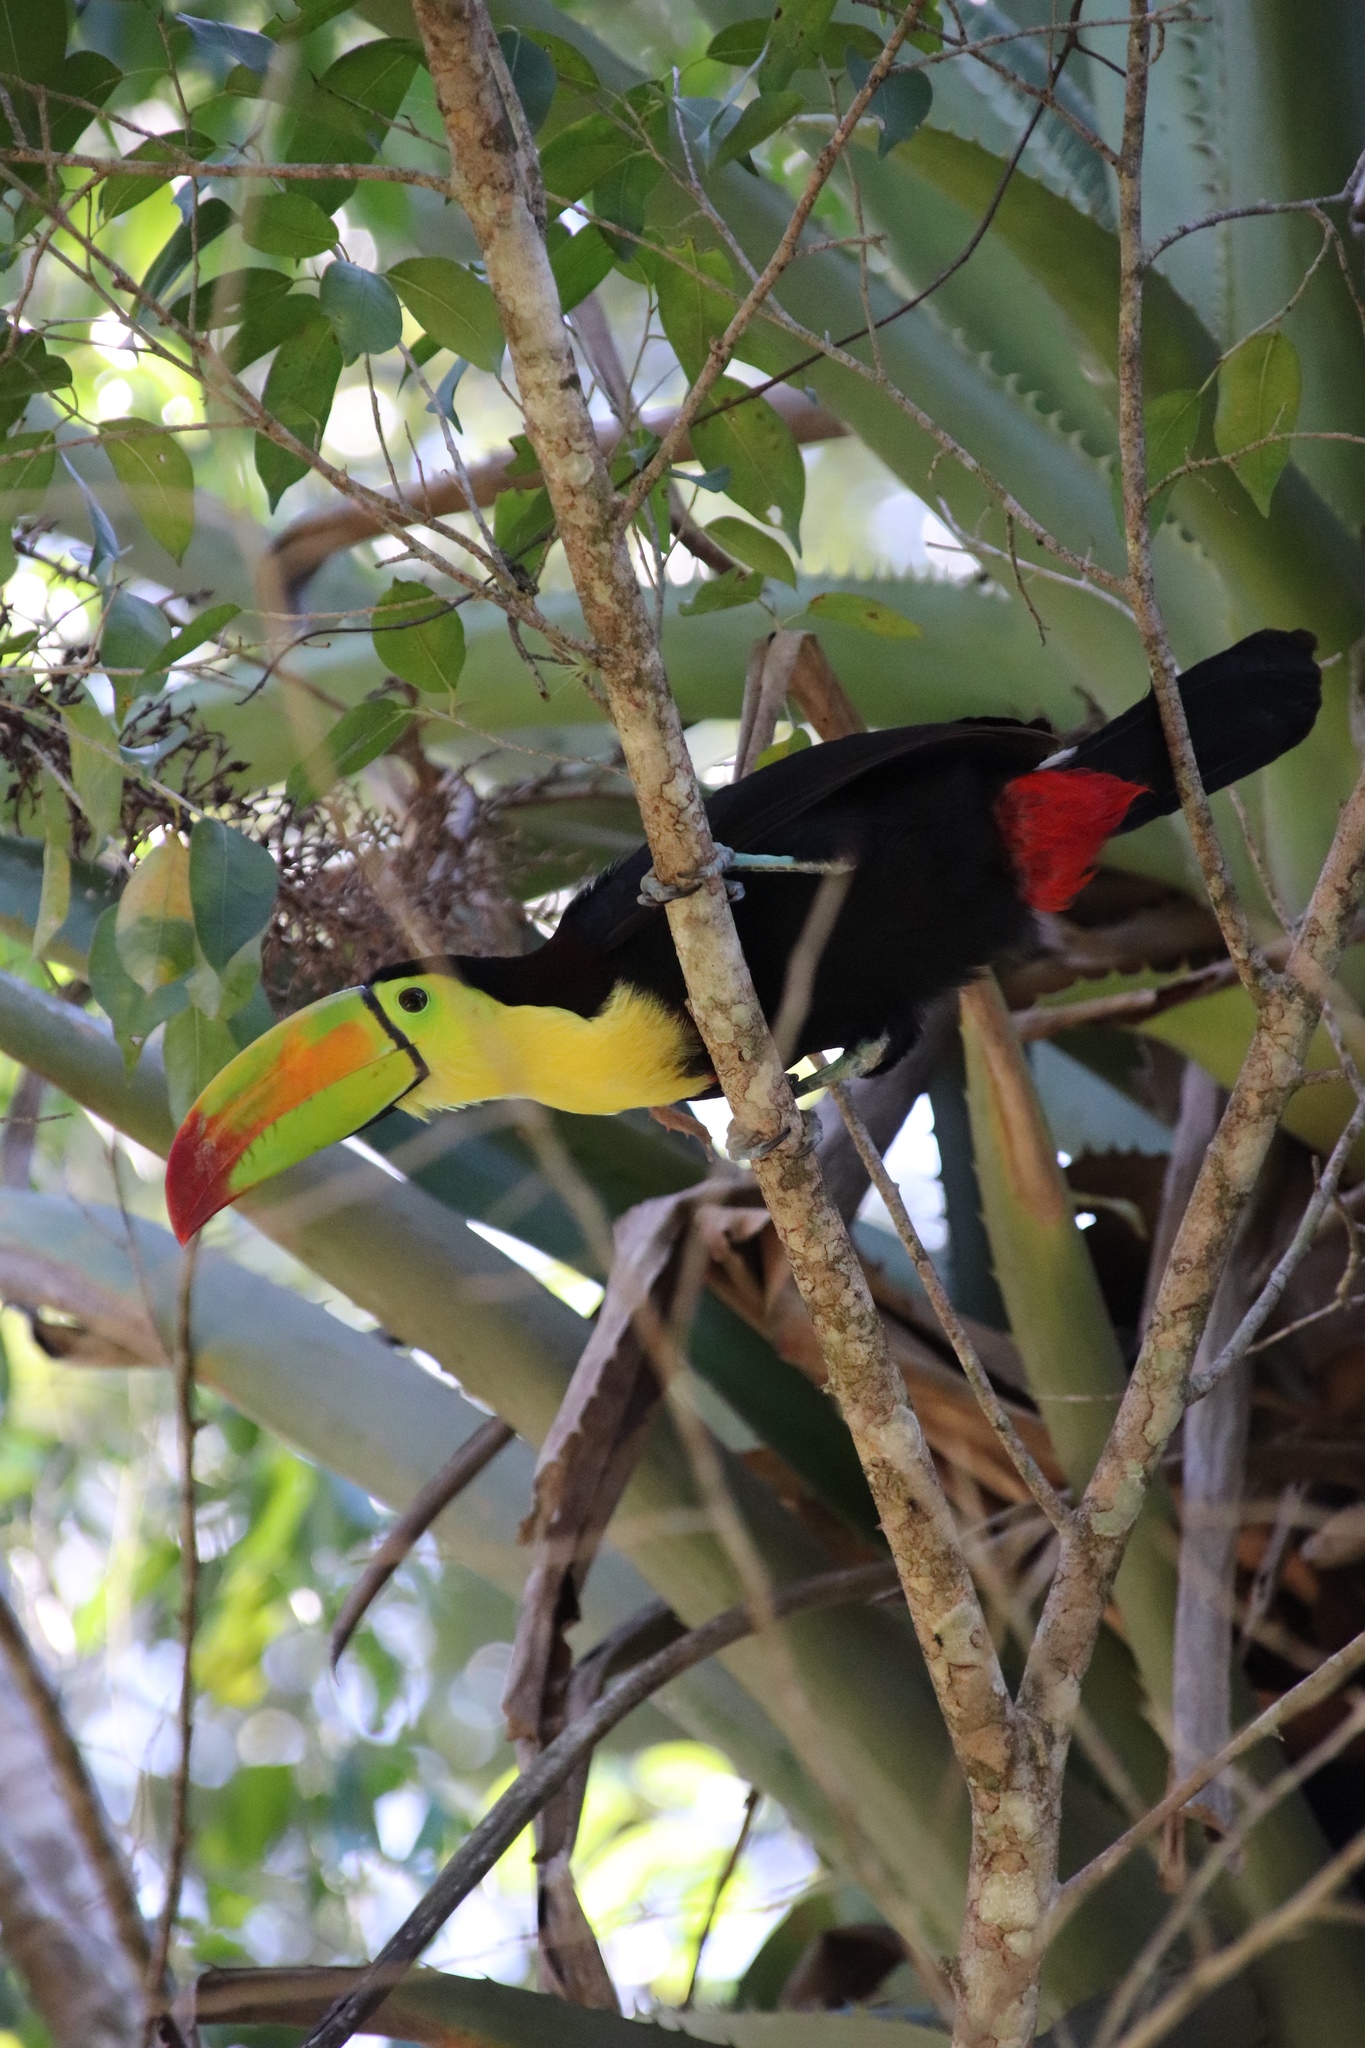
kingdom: Animalia
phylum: Chordata
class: Aves
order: Piciformes
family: Ramphastidae
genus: Ramphastos
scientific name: Ramphastos sulfuratus
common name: Keel-billed toucan
